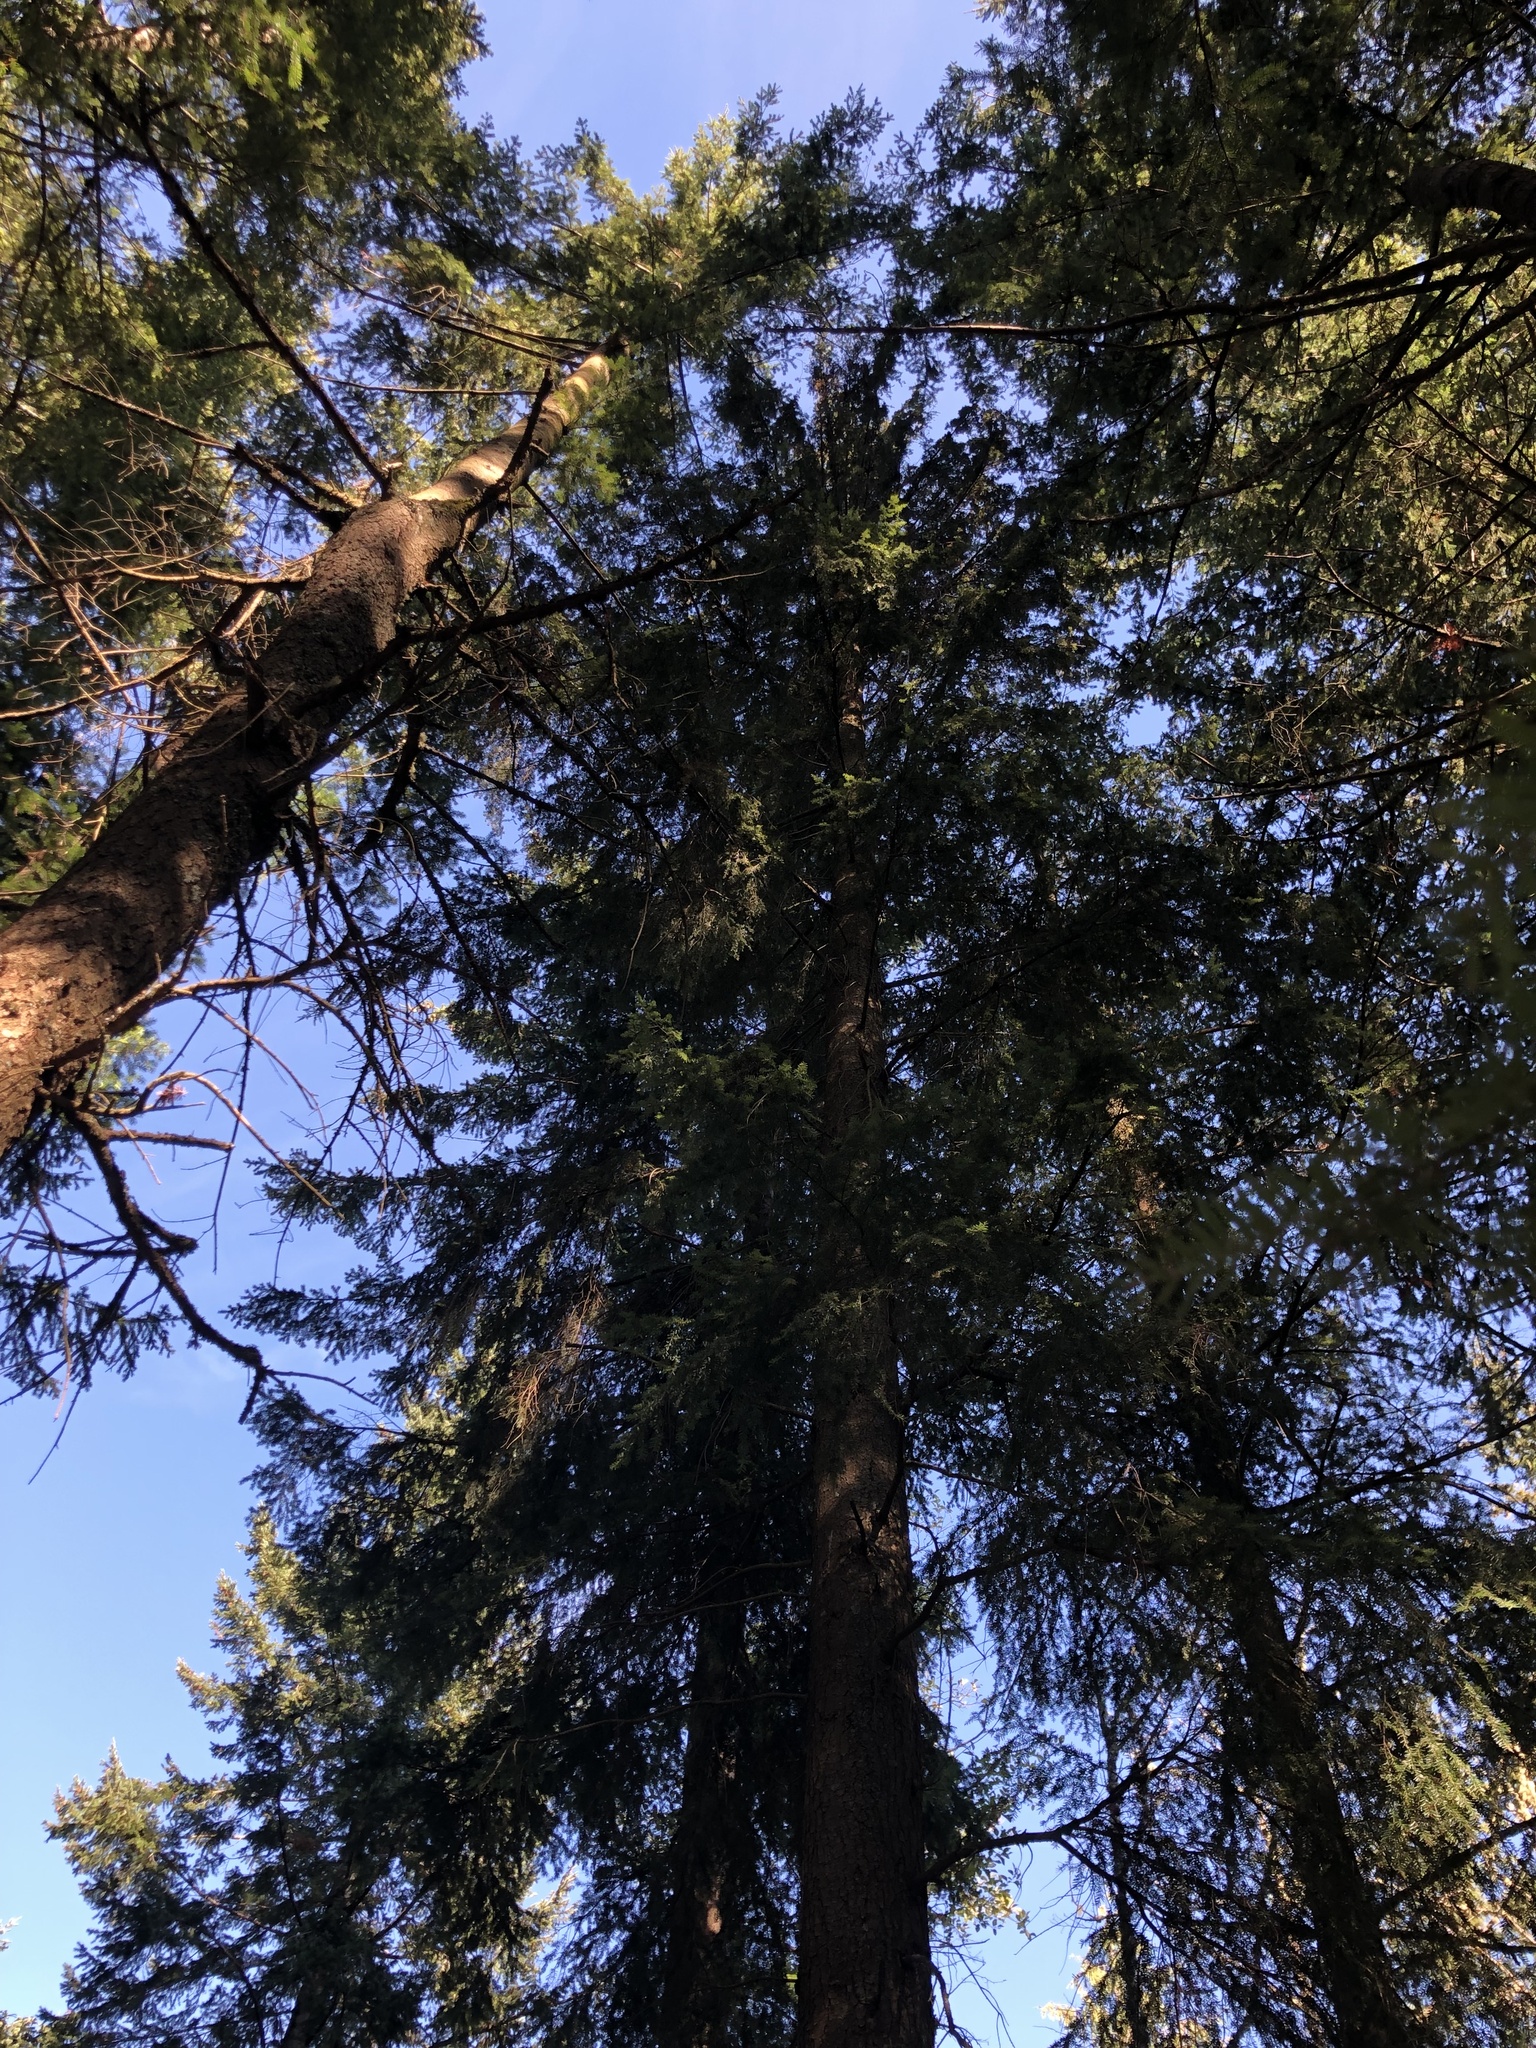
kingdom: Plantae
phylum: Tracheophyta
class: Pinopsida
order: Pinales
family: Pinaceae
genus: Tsuga
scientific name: Tsuga heterophylla
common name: Western hemlock
